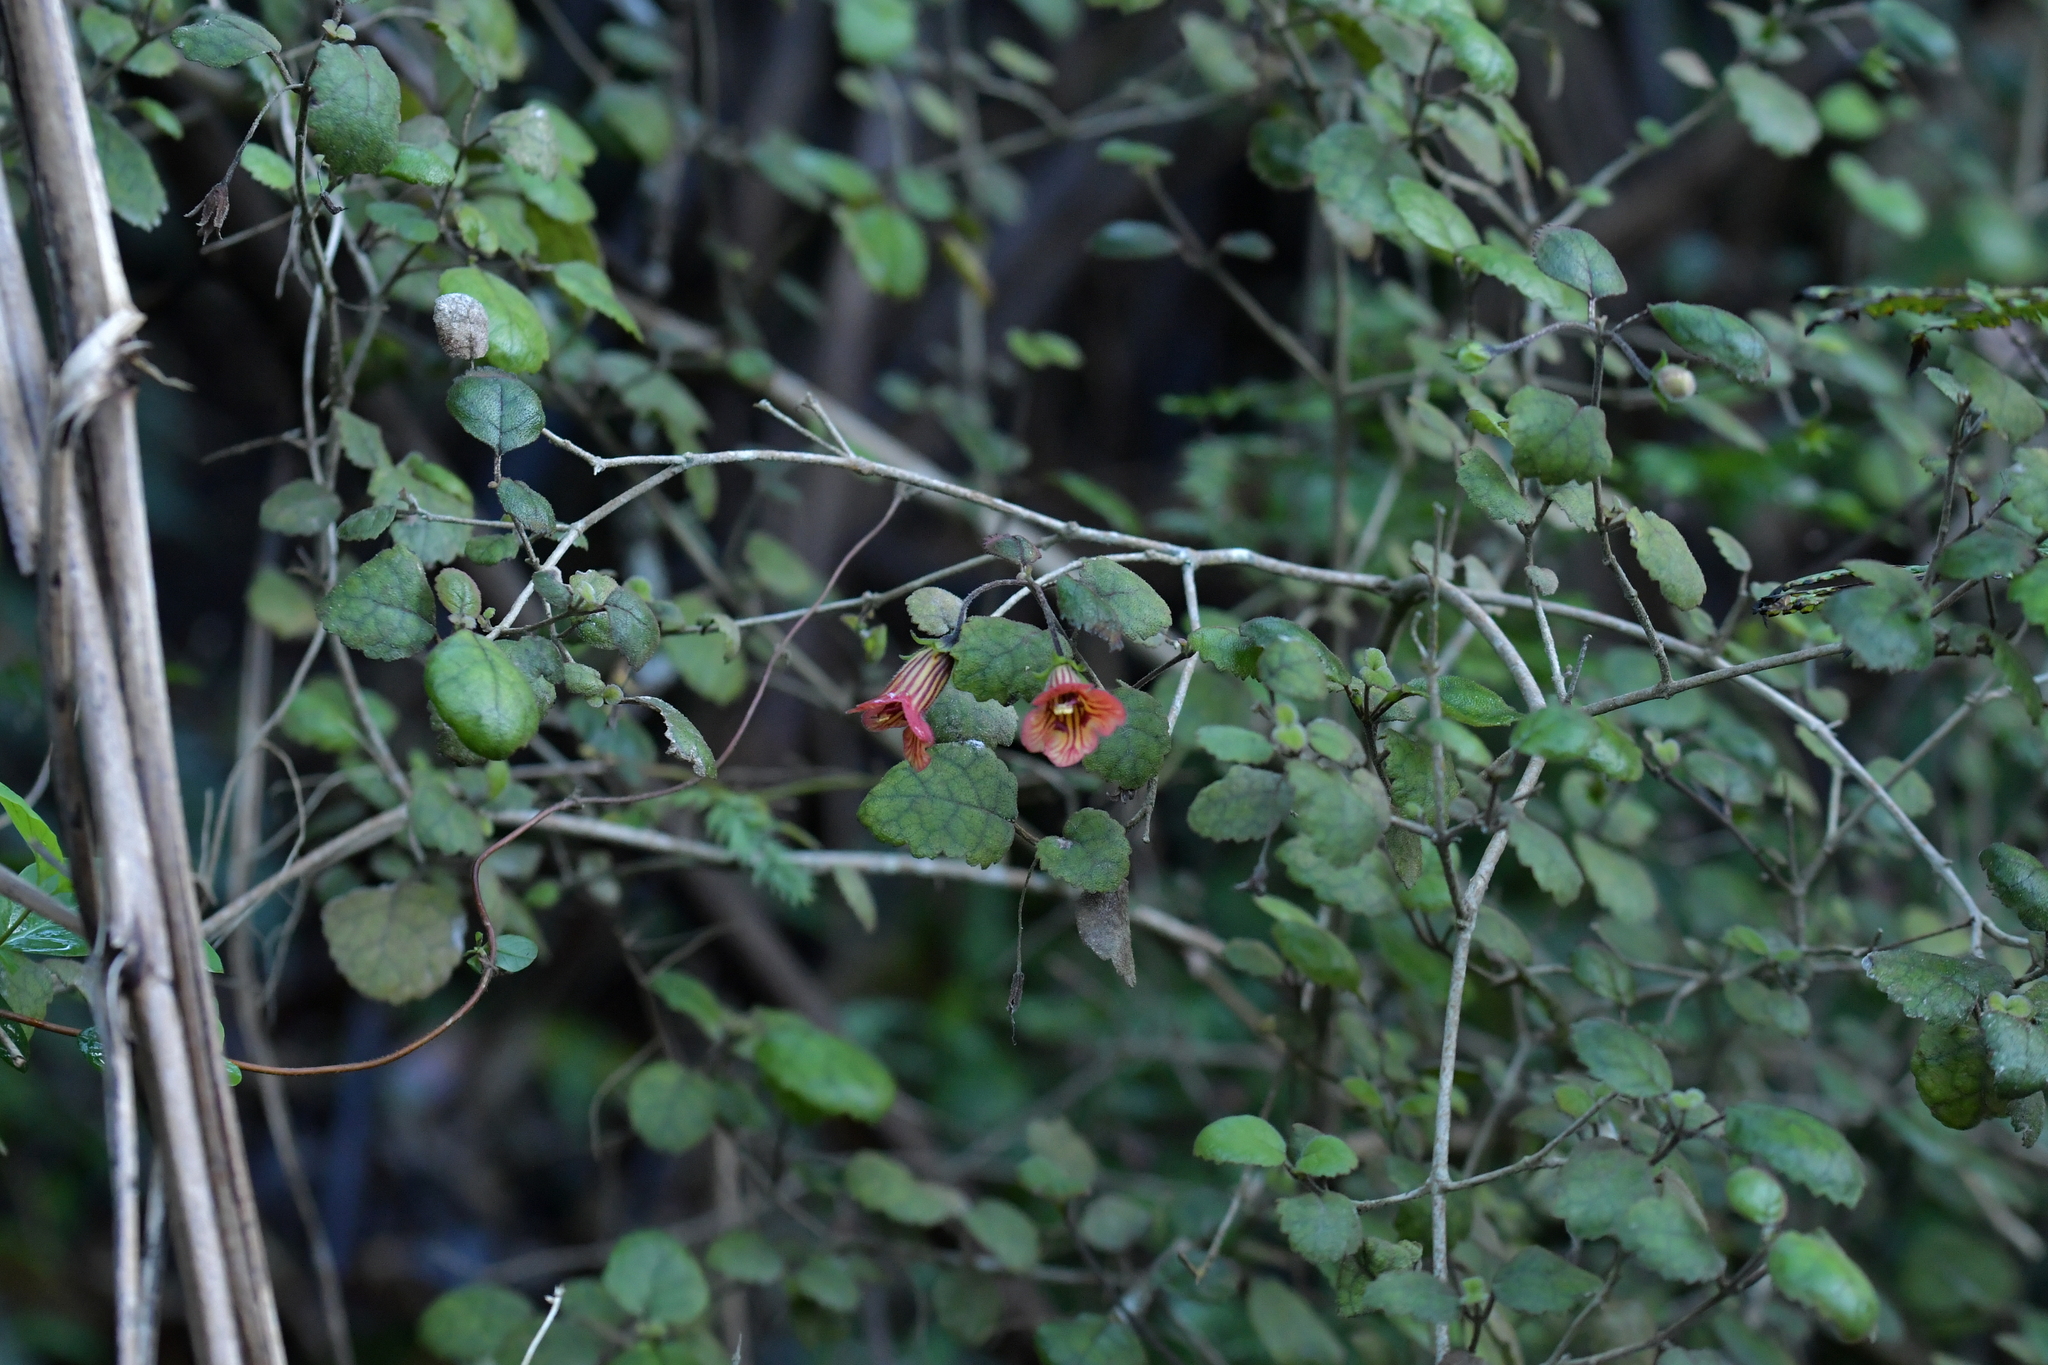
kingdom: Plantae
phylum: Tracheophyta
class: Magnoliopsida
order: Lamiales
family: Gesneriaceae
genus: Rhabdothamnus
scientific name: Rhabdothamnus solandri
